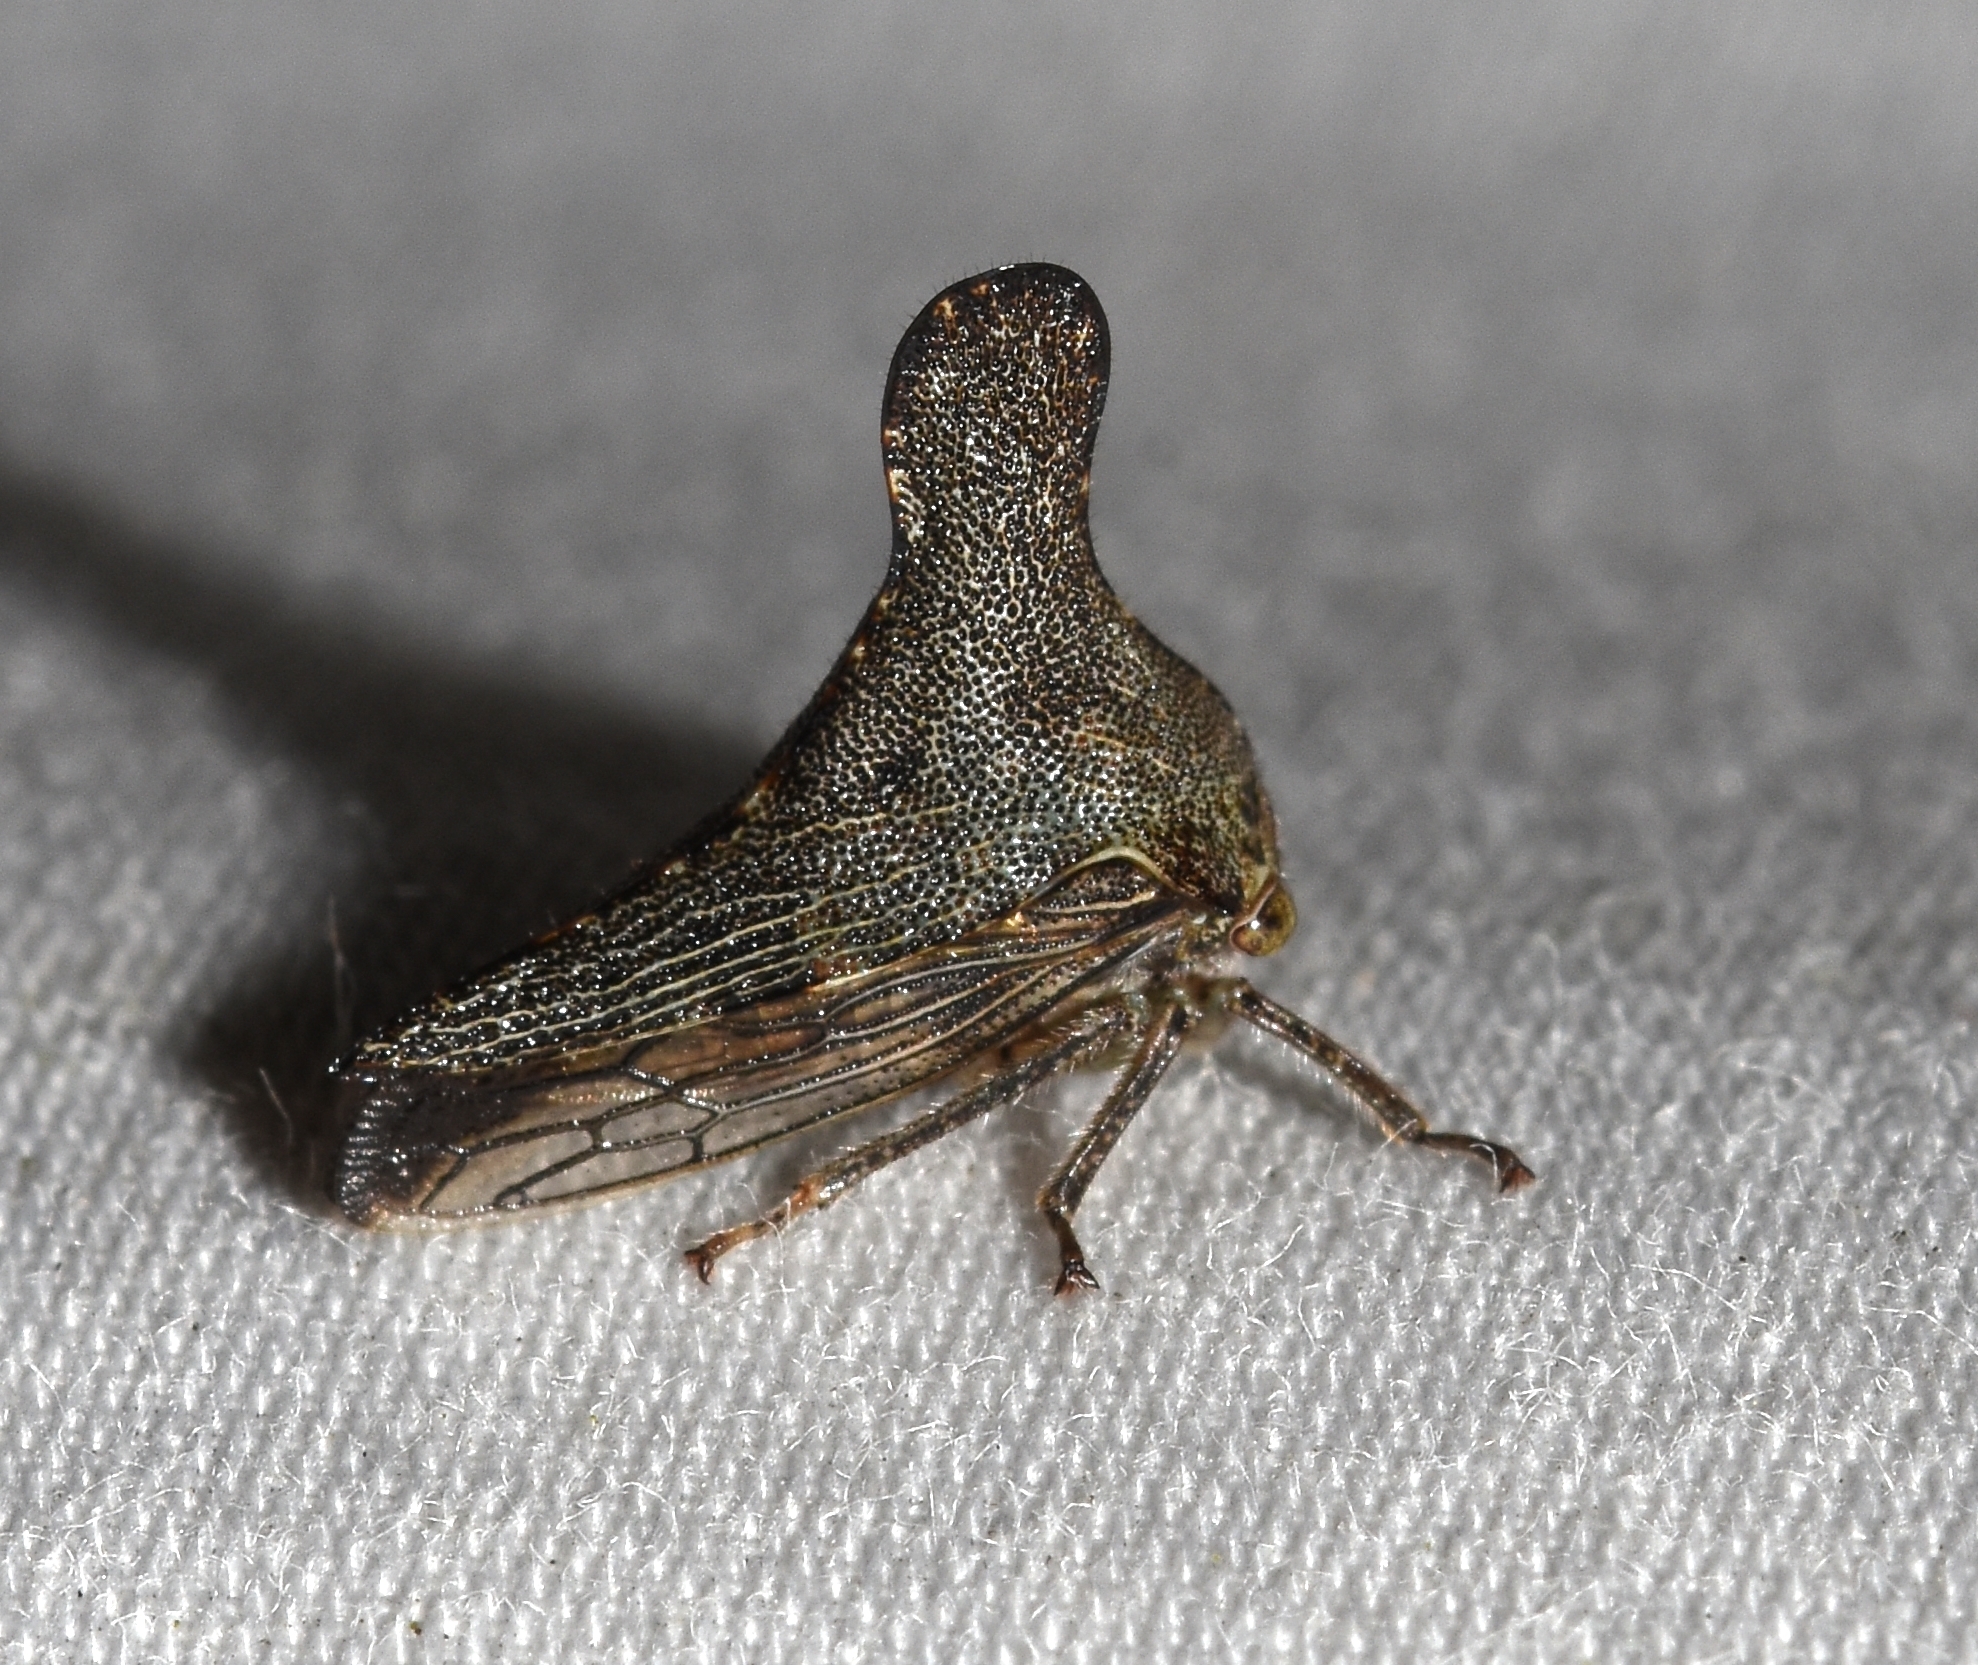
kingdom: Animalia
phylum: Arthropoda
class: Insecta
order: Hemiptera
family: Membracidae
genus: Glossonotus
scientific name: Glossonotus acuminata
